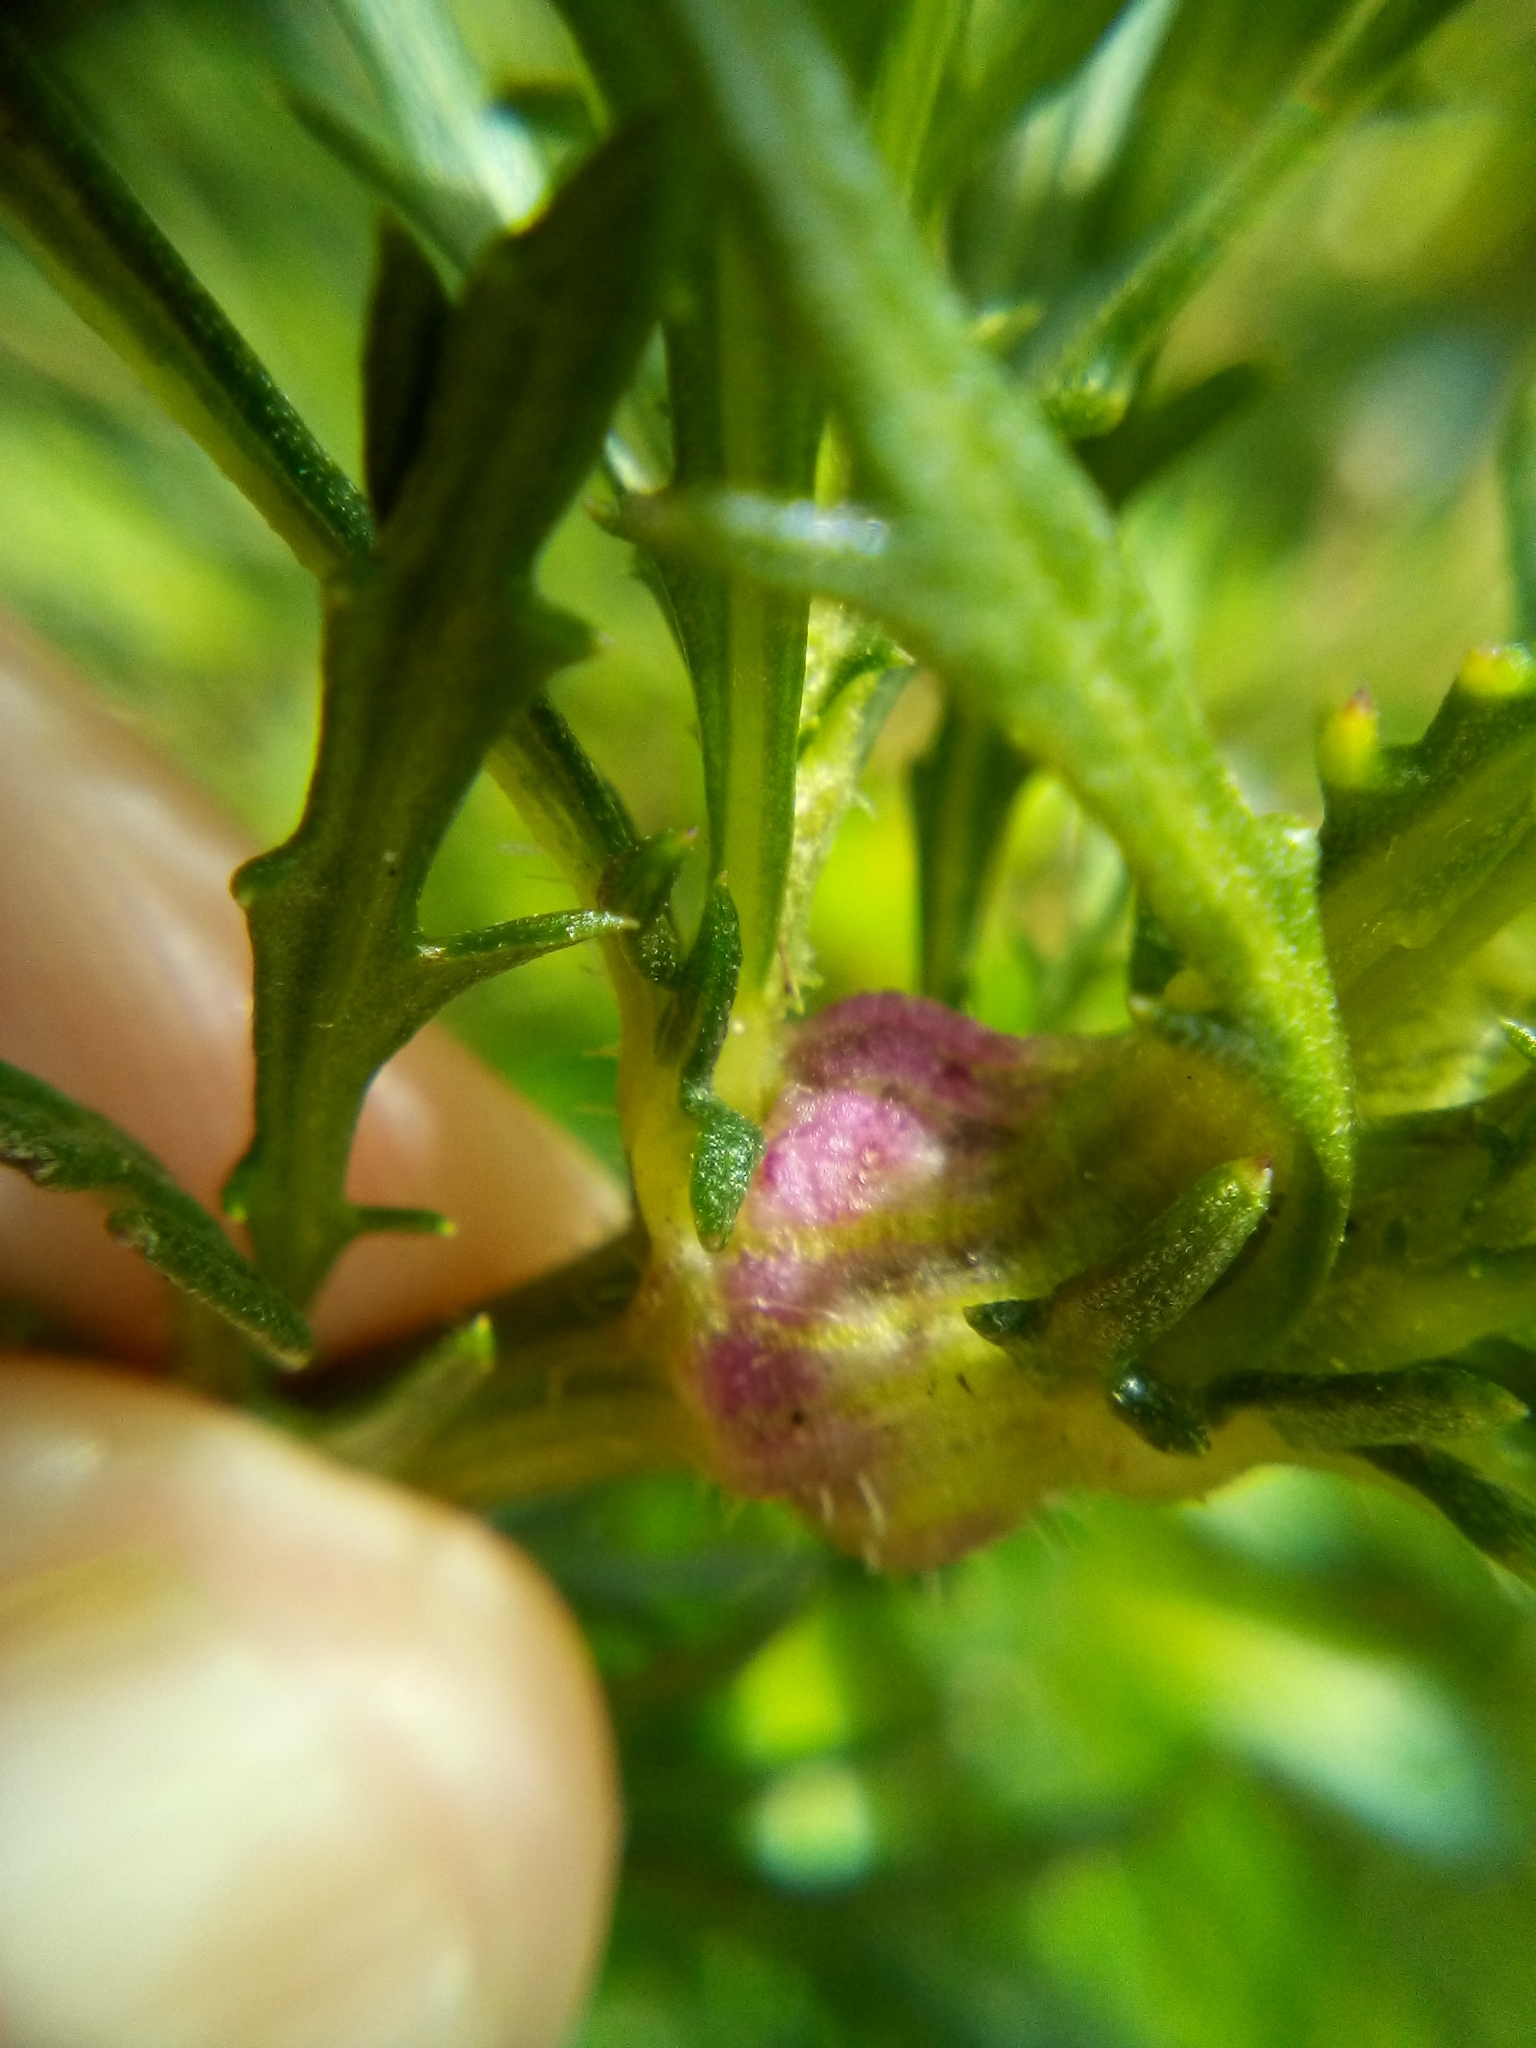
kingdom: Animalia
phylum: Arthropoda
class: Insecta
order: Diptera
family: Tephritidae
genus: Sphenella
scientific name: Sphenella
